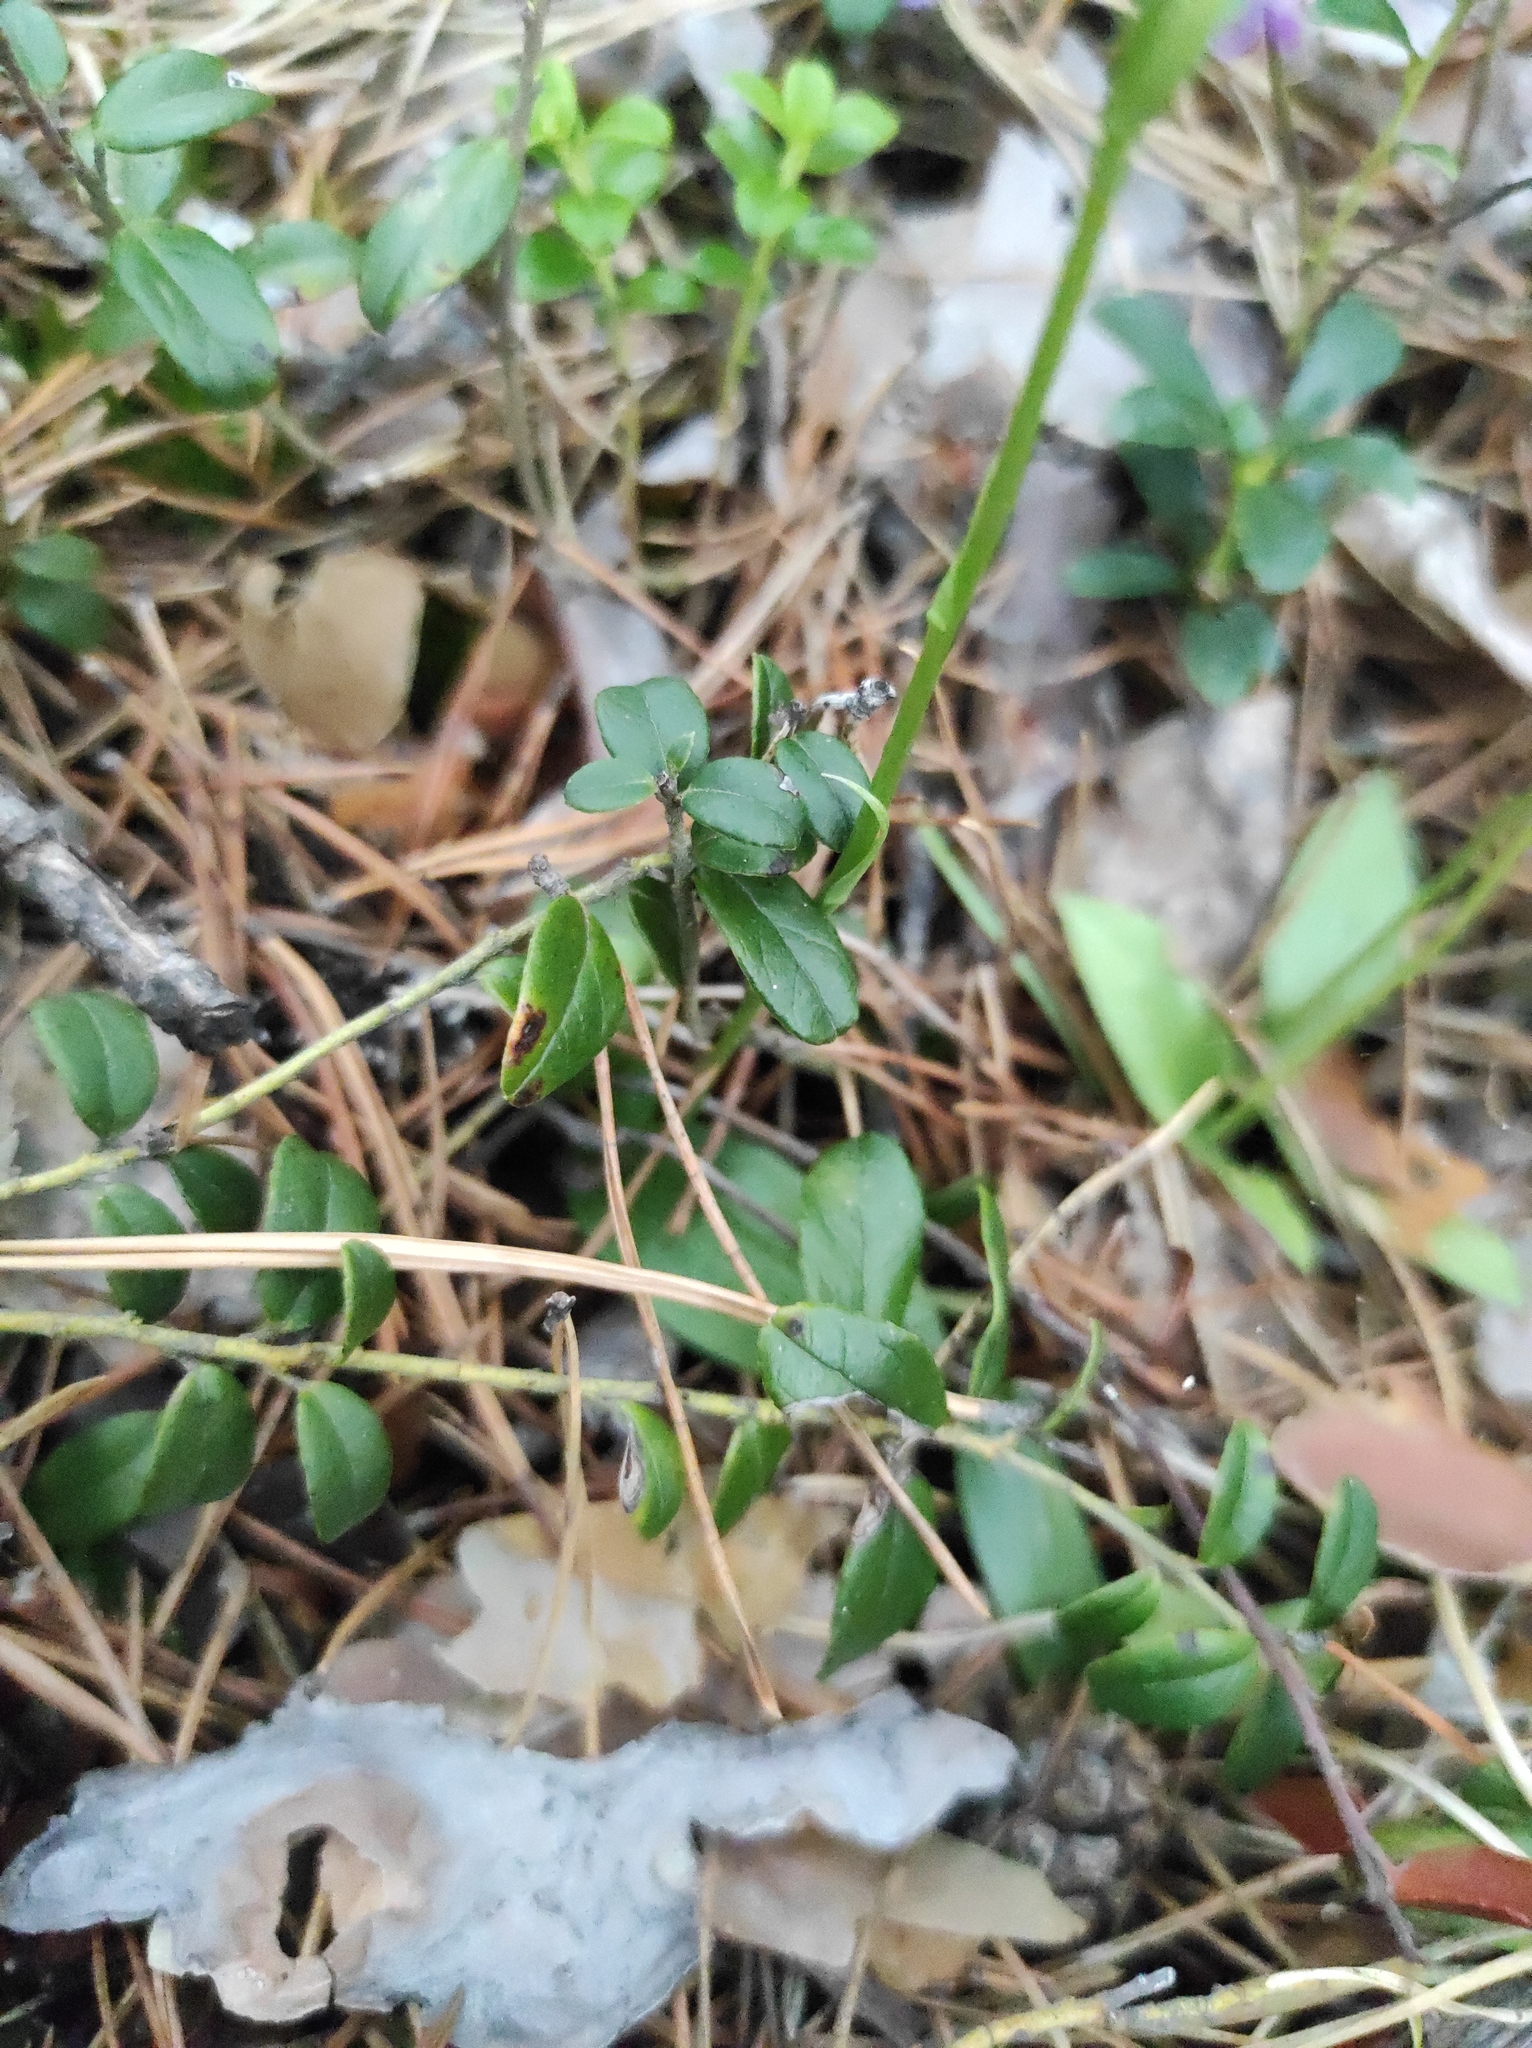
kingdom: Plantae
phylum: Tracheophyta
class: Liliopsida
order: Asparagales
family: Orchidaceae
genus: Hemipilia
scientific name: Hemipilia cucullata
